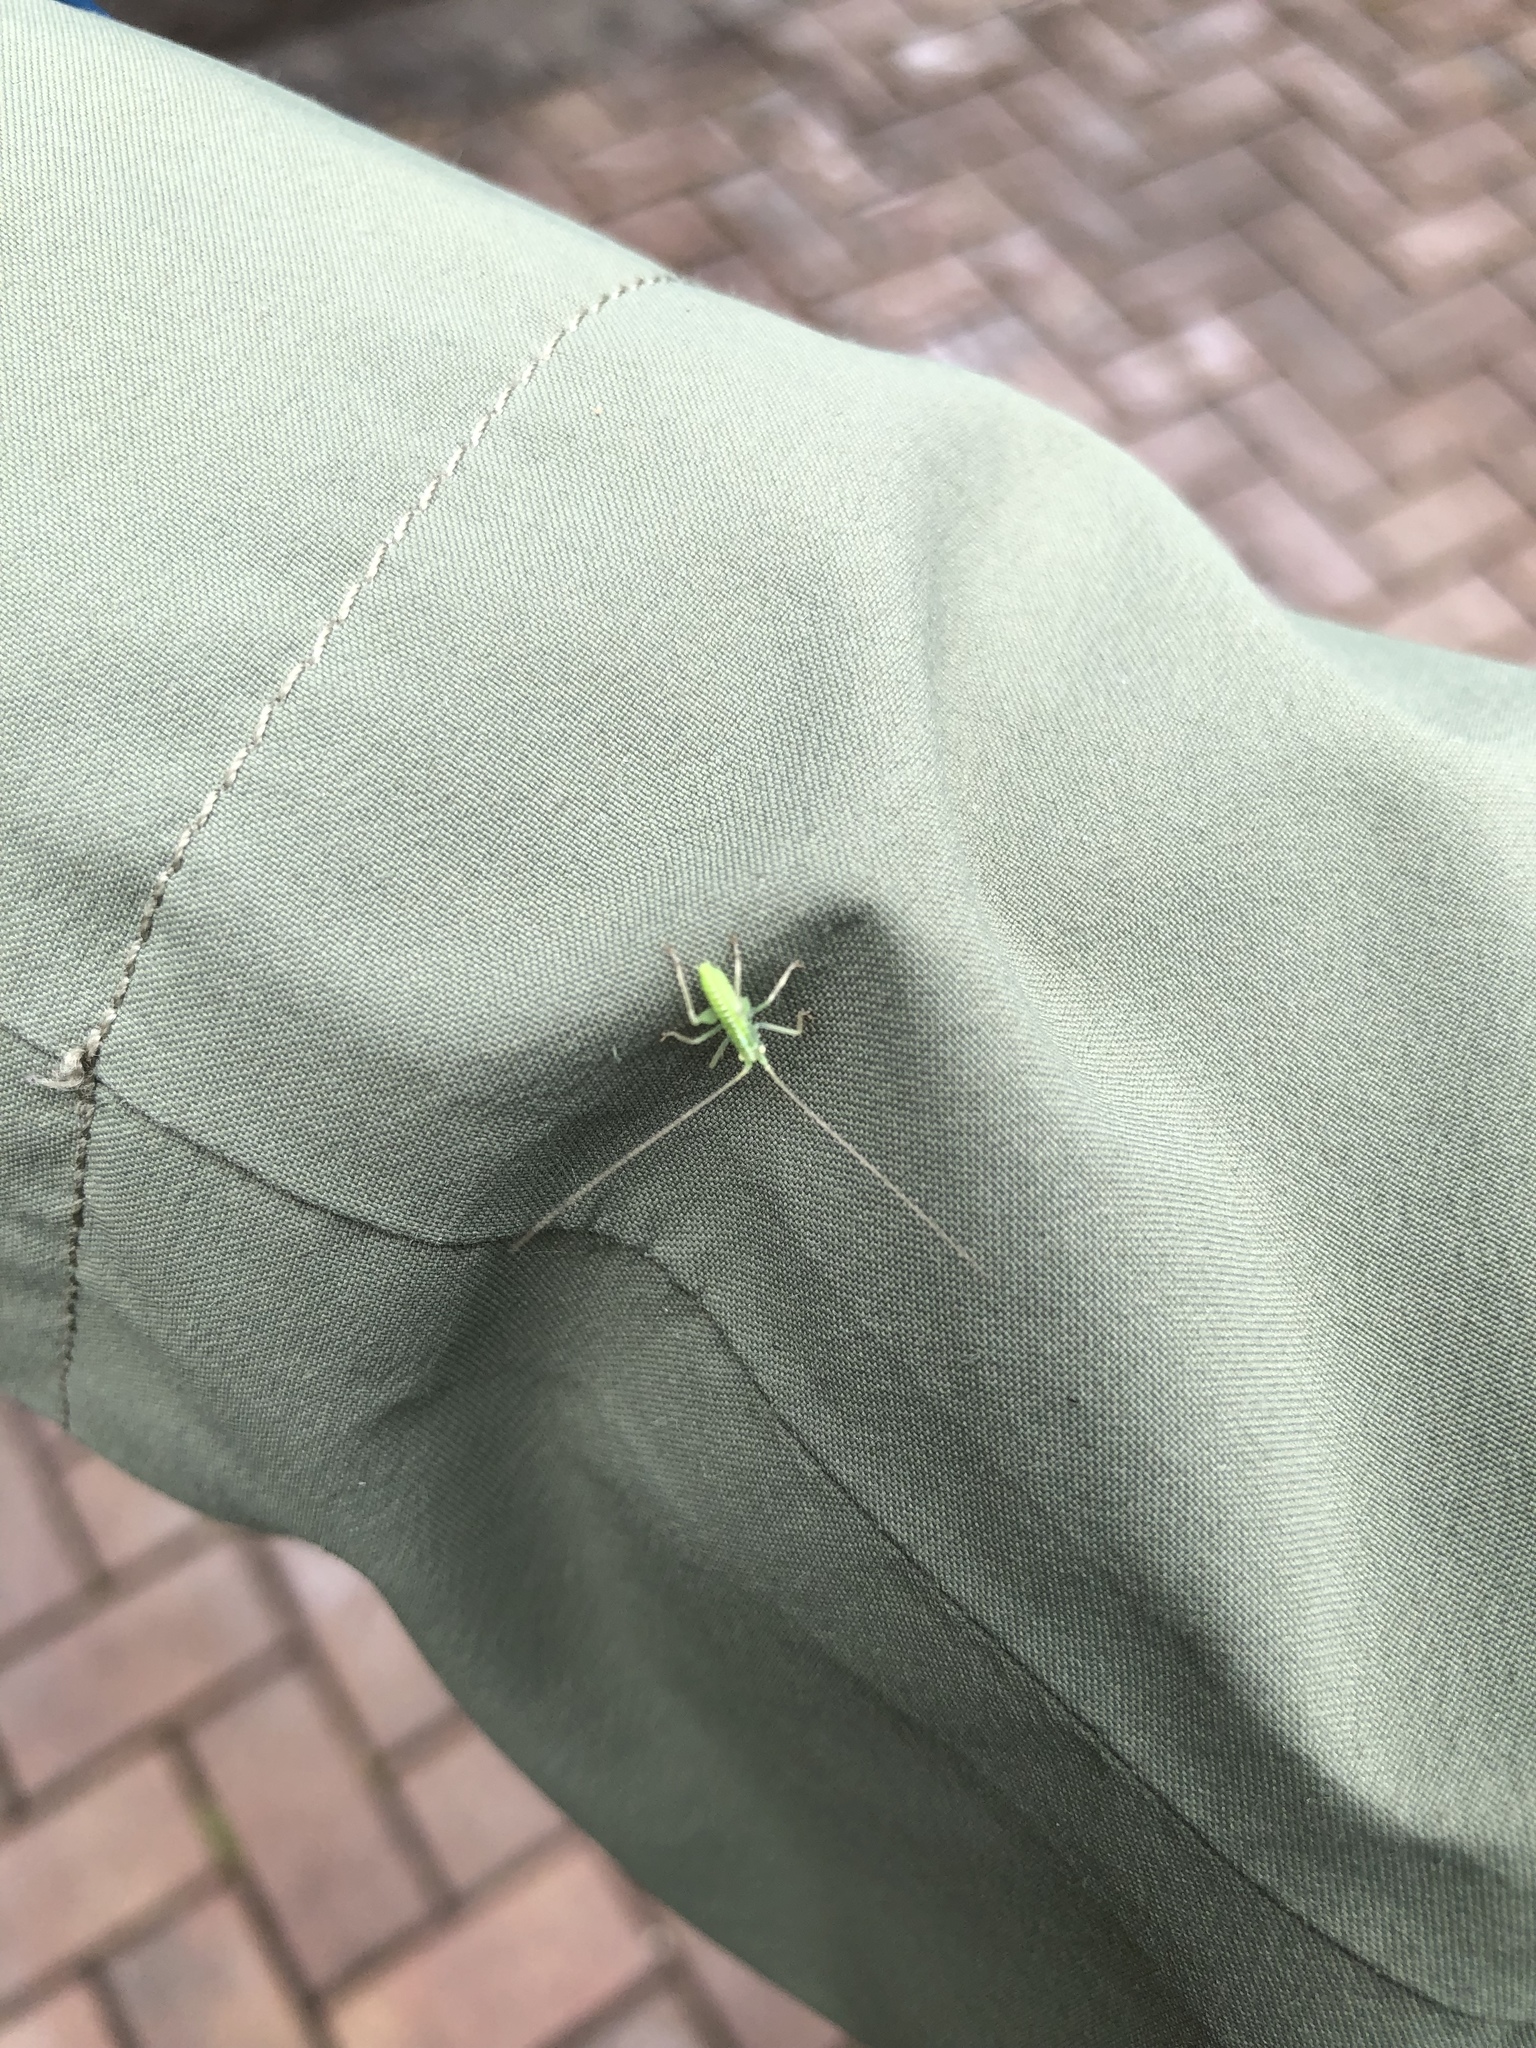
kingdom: Animalia
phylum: Arthropoda
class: Insecta
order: Orthoptera
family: Tettigoniidae
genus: Meconema
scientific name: Meconema thalassinum
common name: Oak bush-cricket
